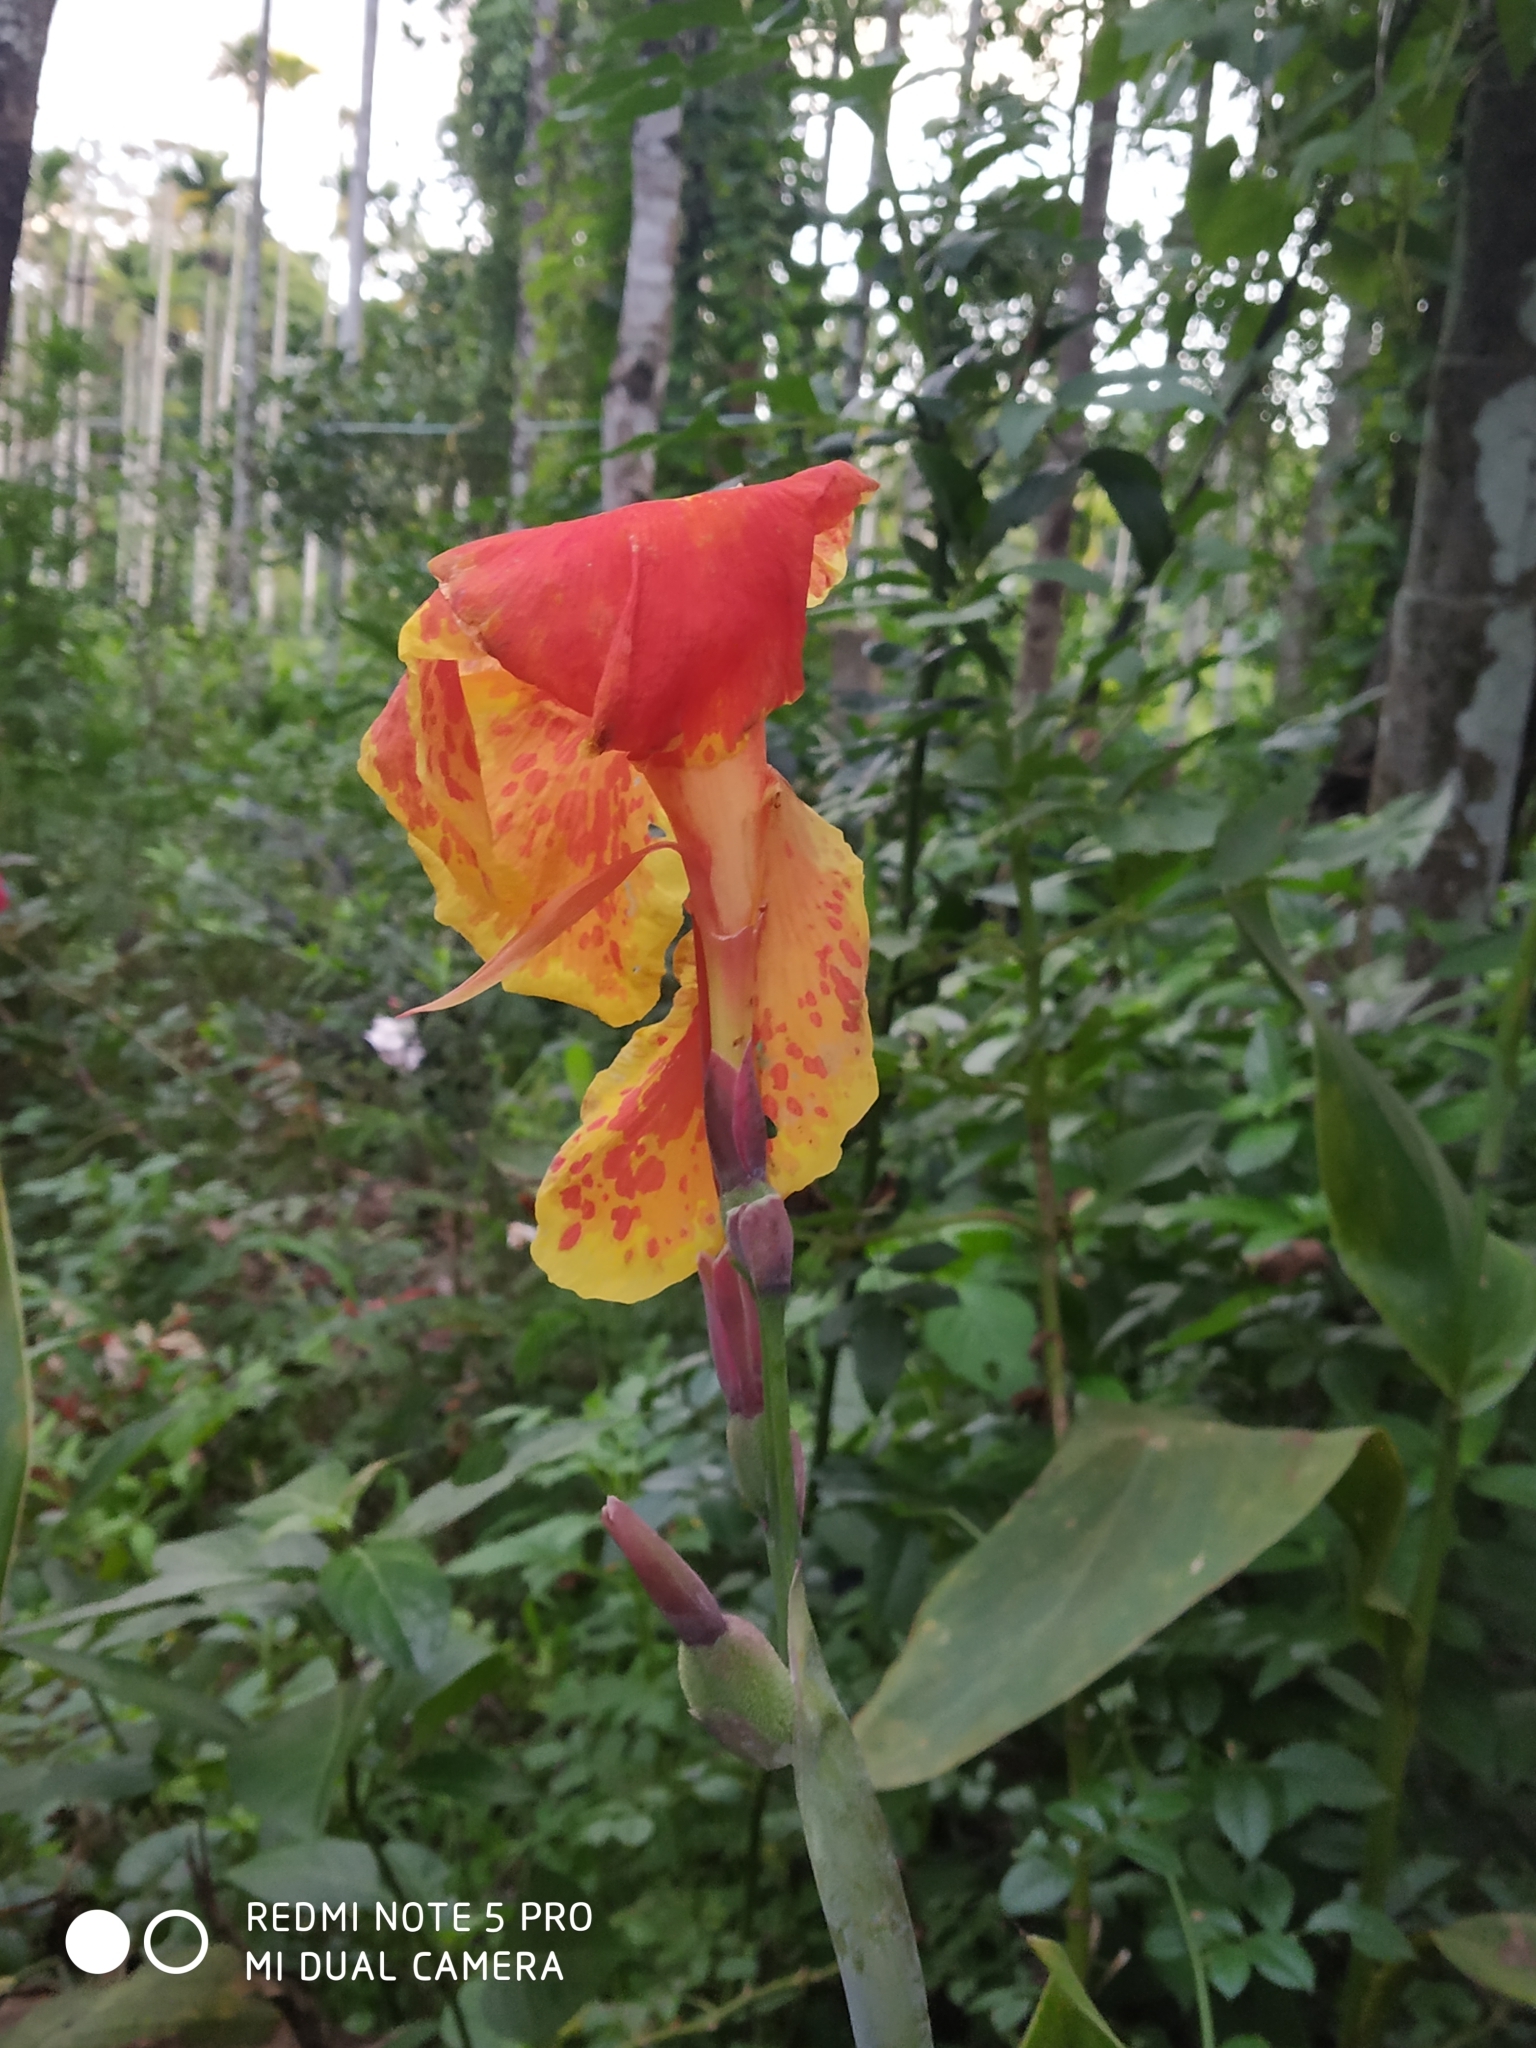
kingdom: Plantae
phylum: Tracheophyta
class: Liliopsida
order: Zingiberales
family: Cannaceae
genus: Canna
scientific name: Canna hybrida
